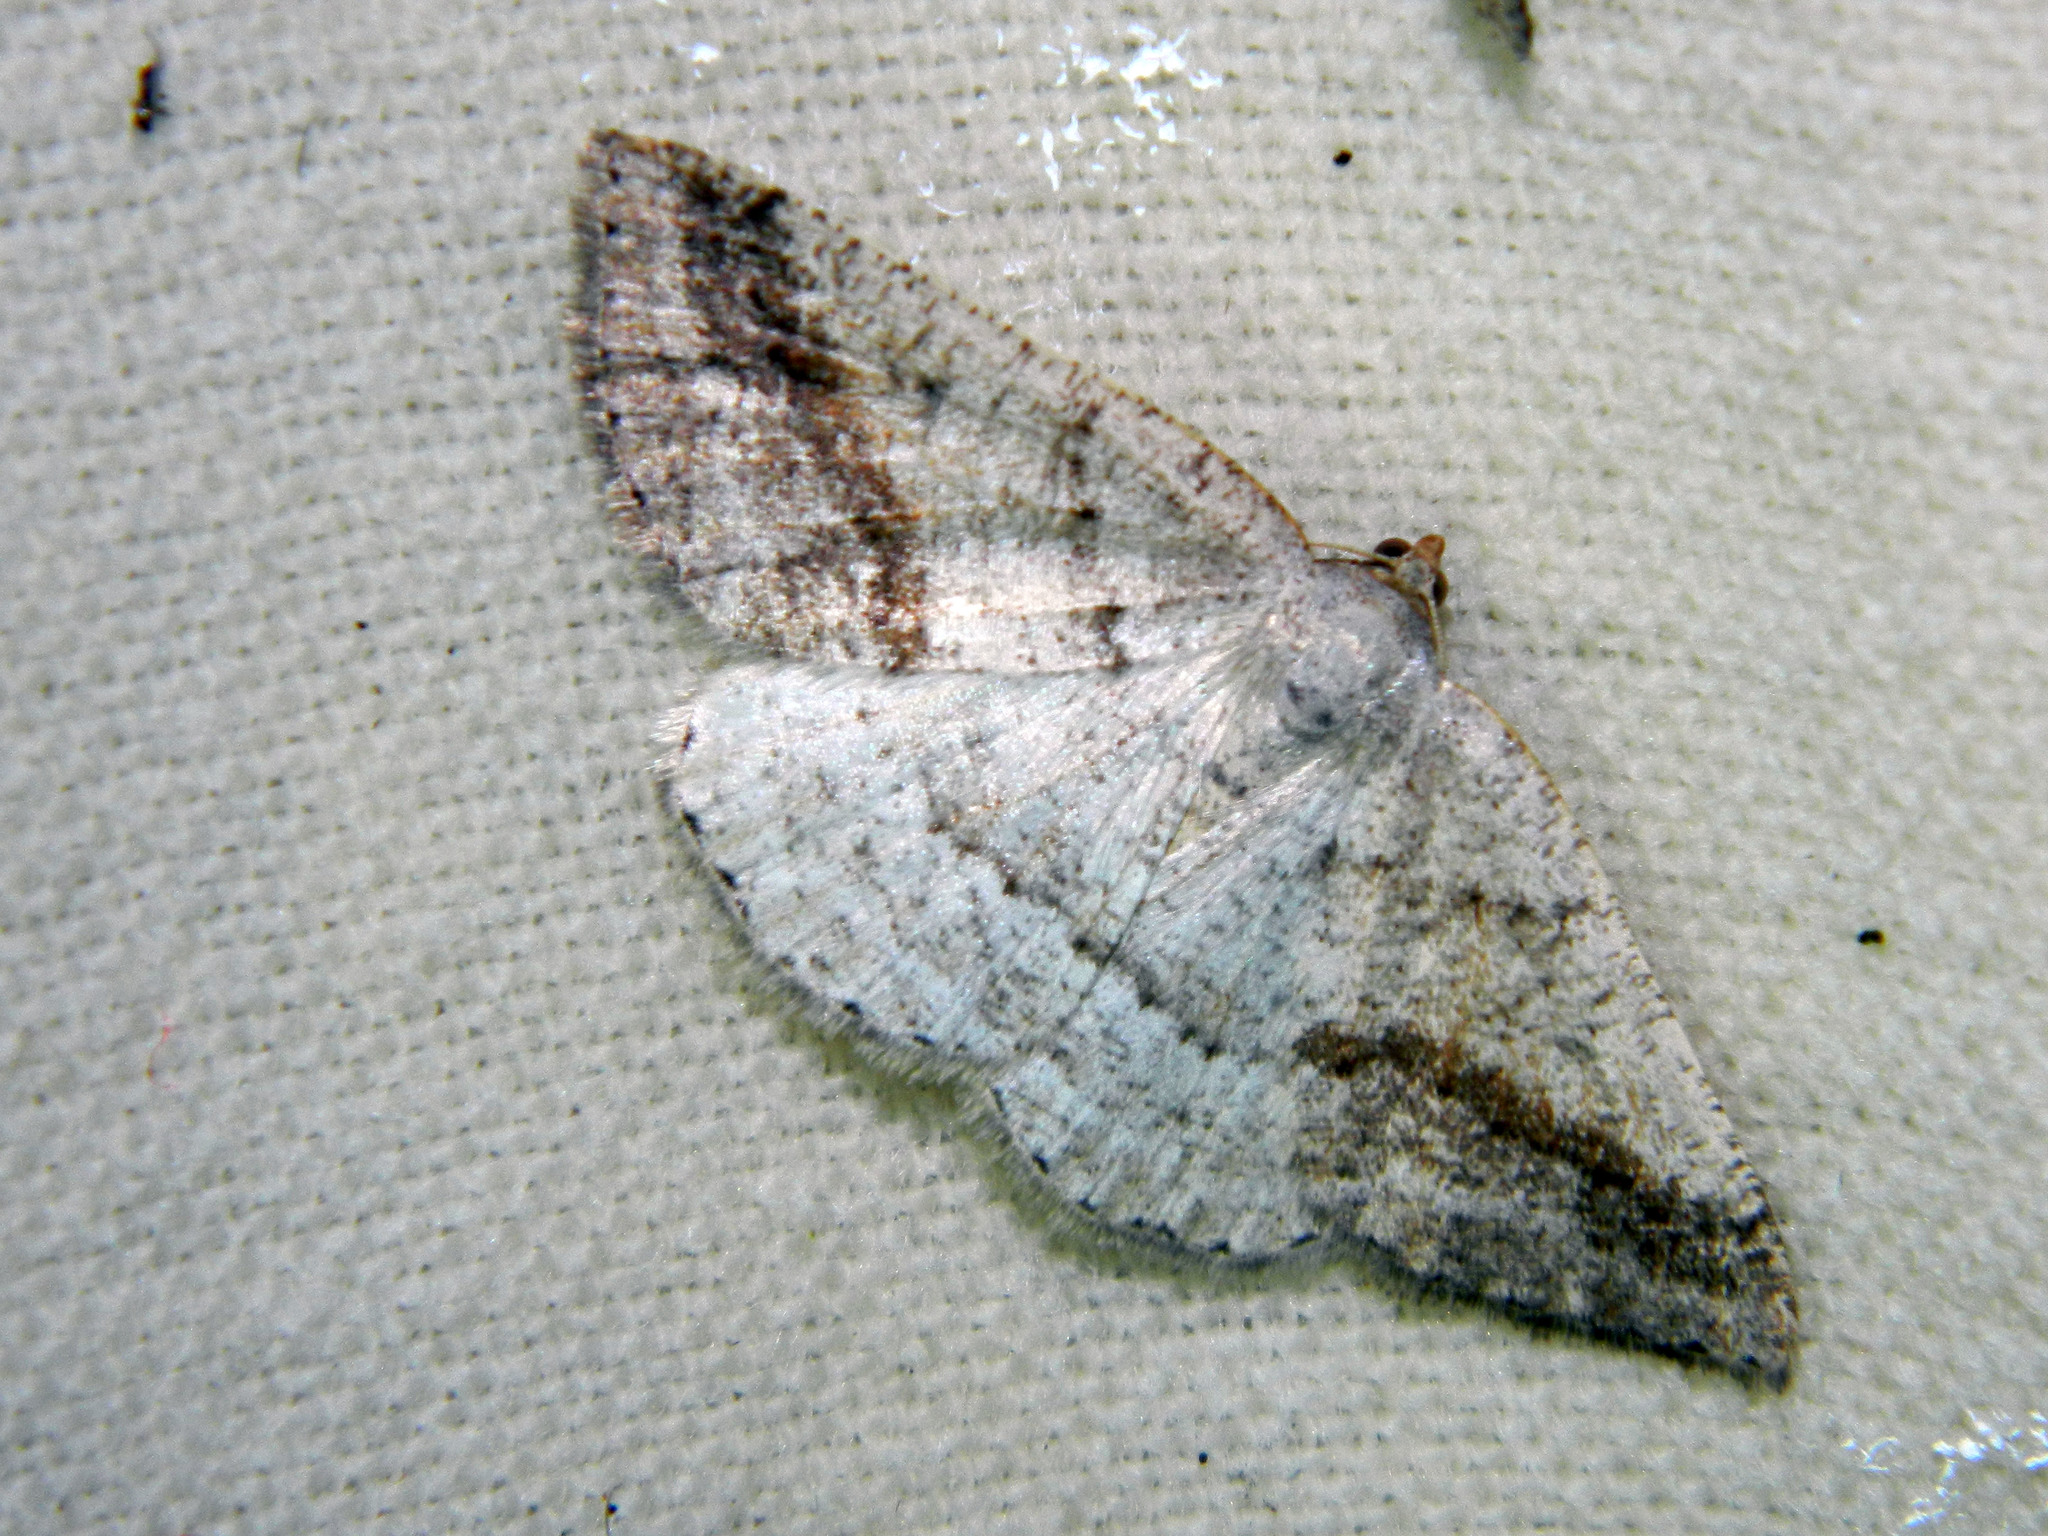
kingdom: Animalia
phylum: Arthropoda
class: Insecta
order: Lepidoptera
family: Geometridae
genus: Tacparia
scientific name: Tacparia detersata
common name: Pale alder moth
